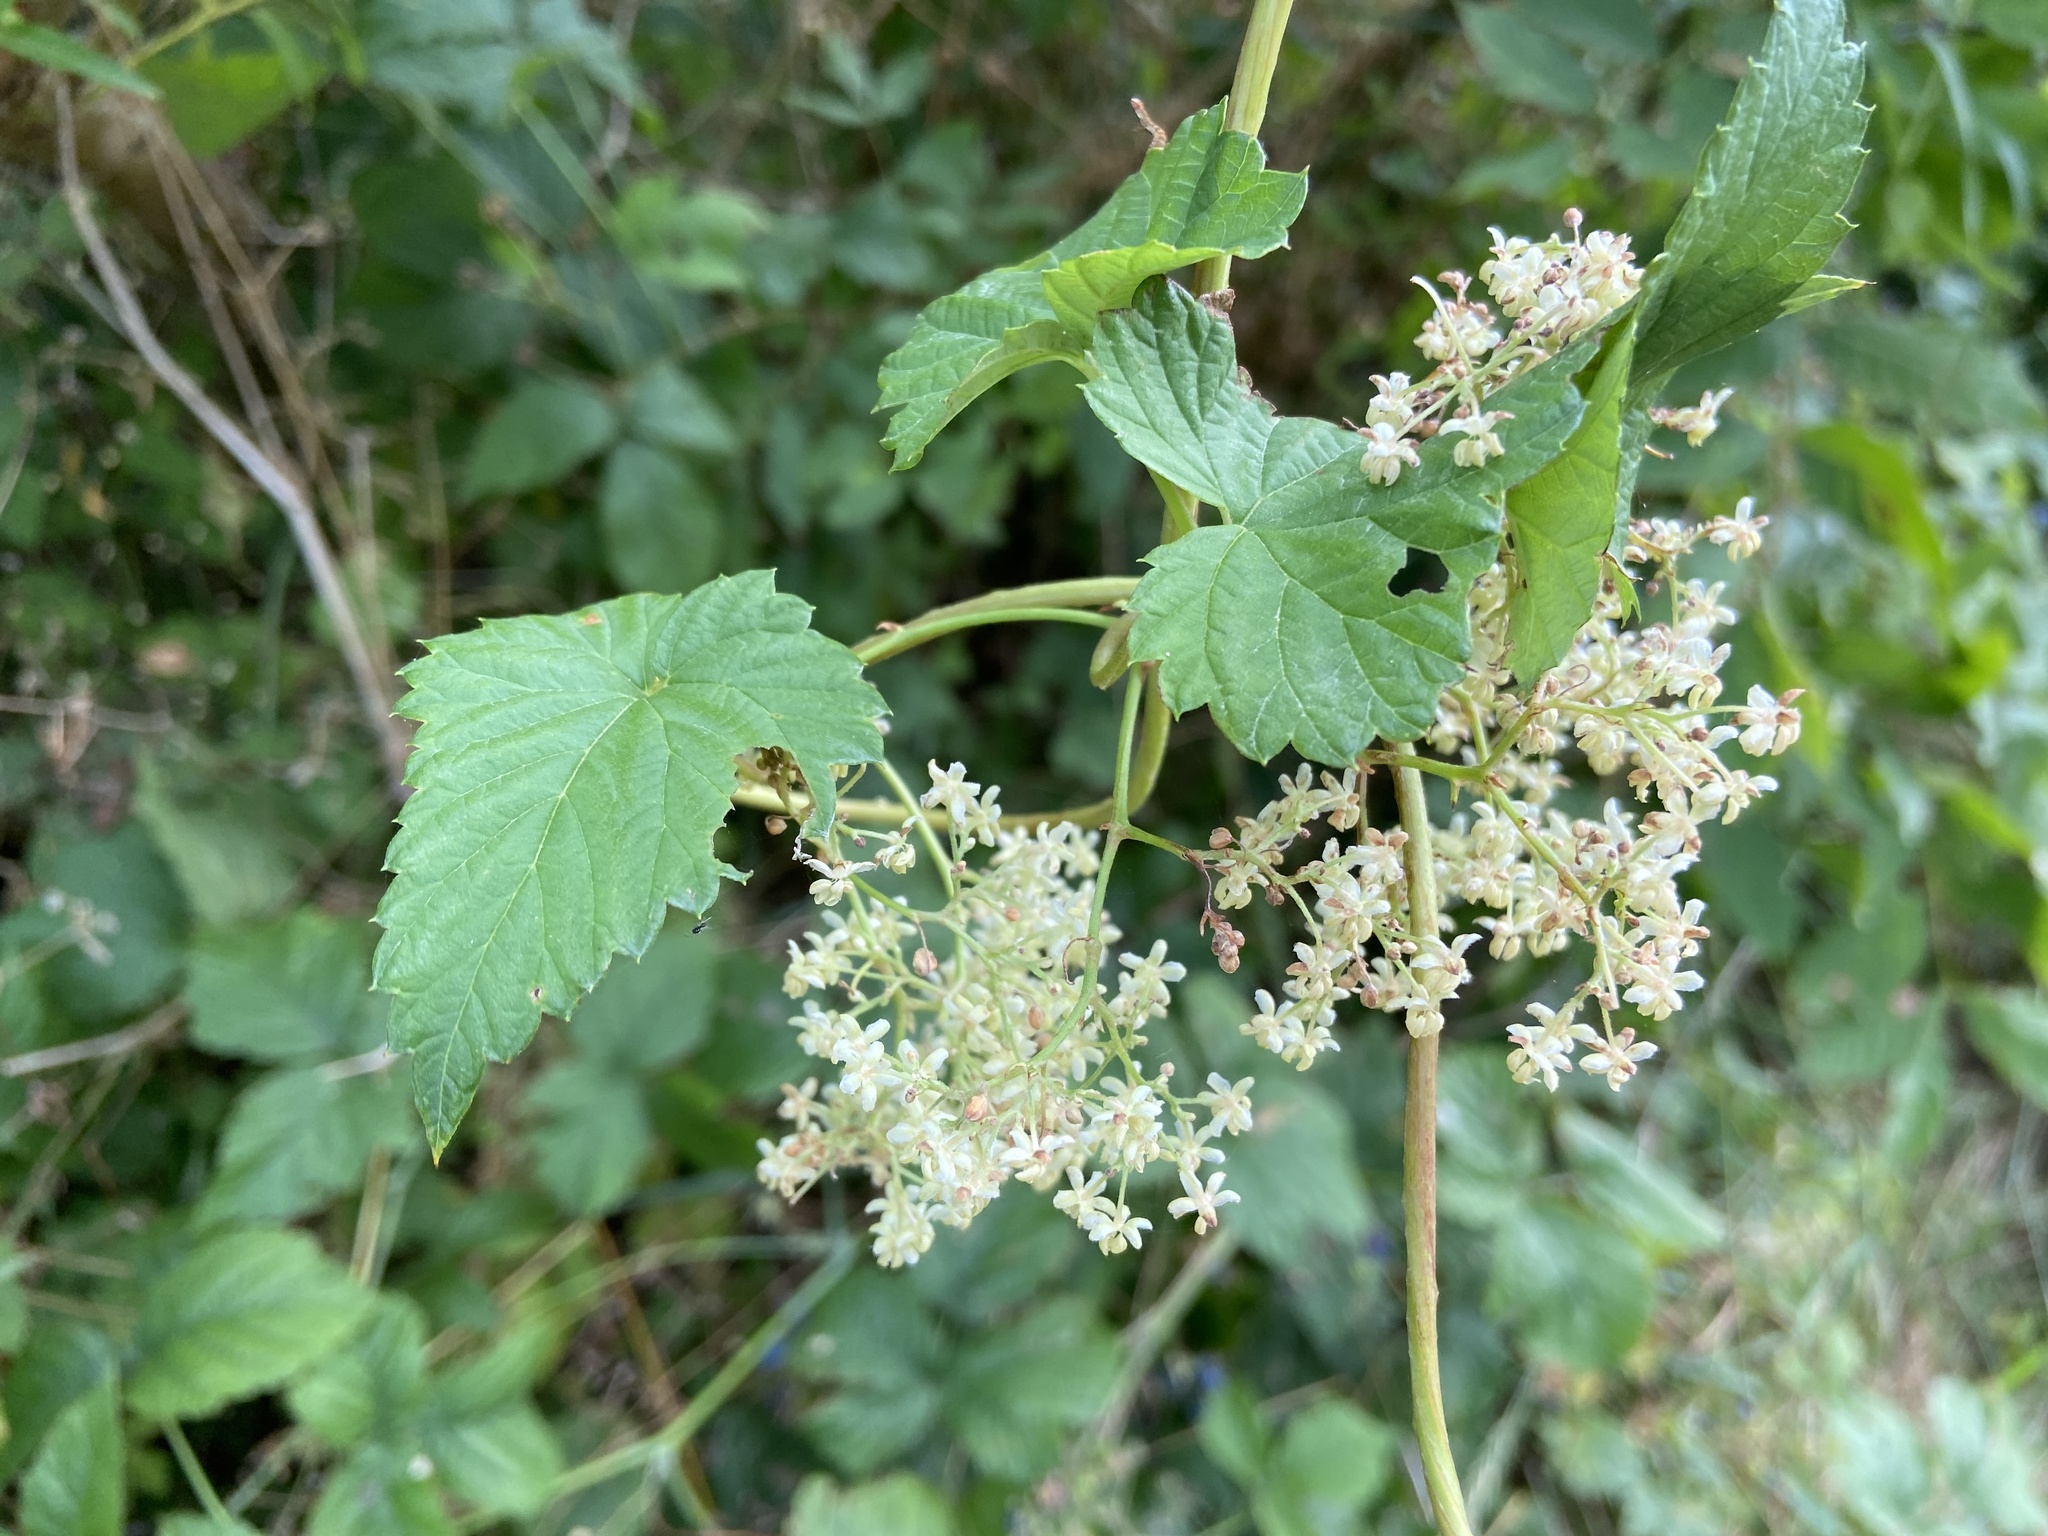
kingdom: Plantae
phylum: Tracheophyta
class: Magnoliopsida
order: Rosales
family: Cannabaceae
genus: Humulus
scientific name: Humulus lupulus
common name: Hop
